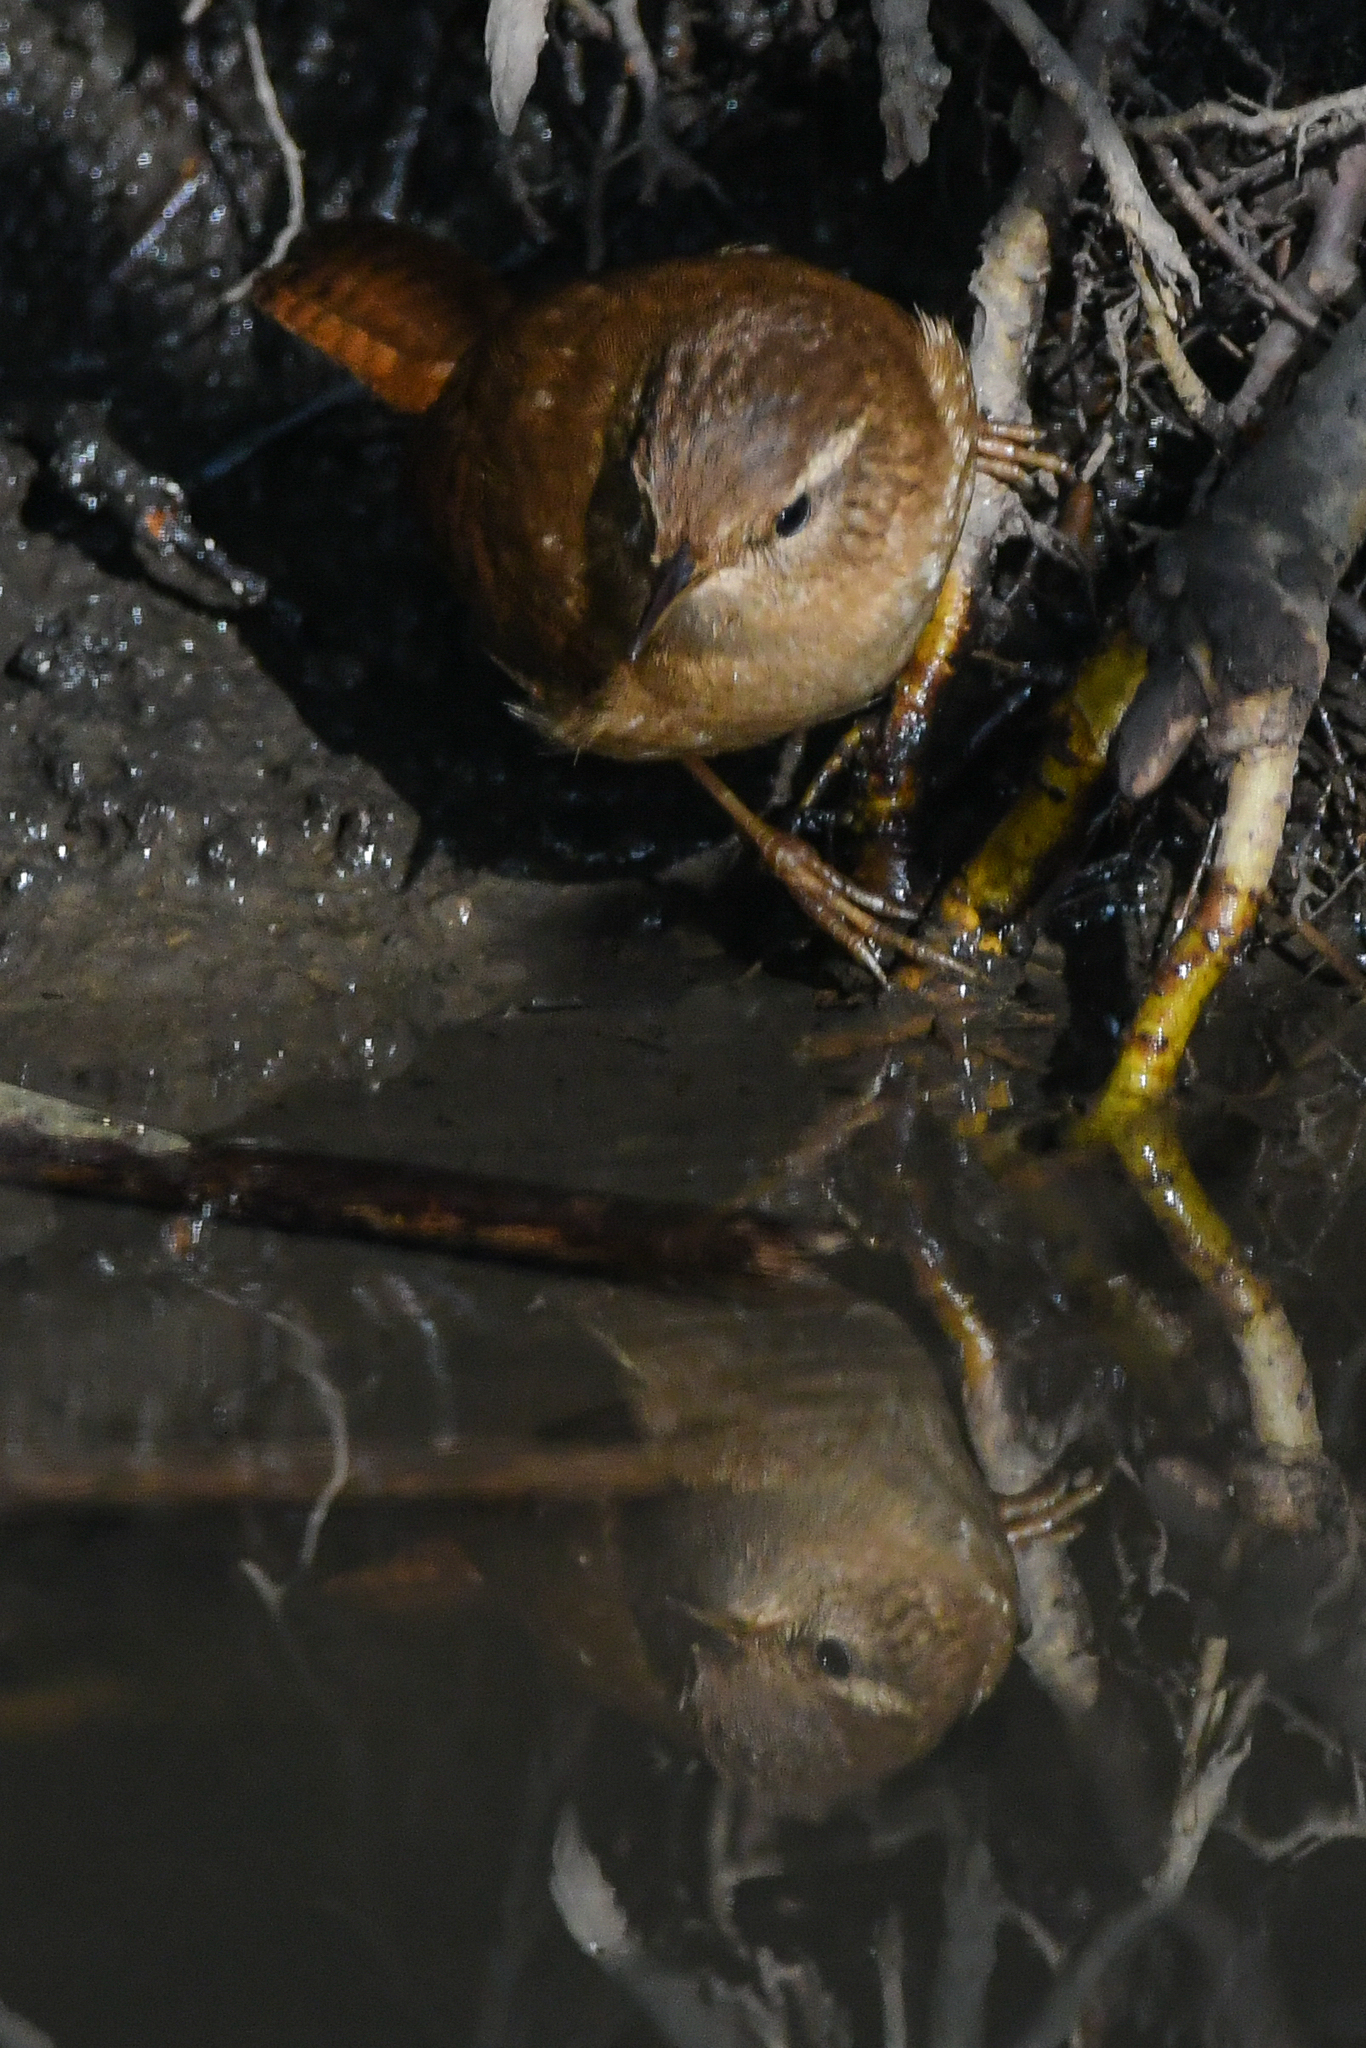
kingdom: Animalia
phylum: Chordata
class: Aves
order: Passeriformes
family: Troglodytidae
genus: Troglodytes
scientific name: Troglodytes troglodytes
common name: Eurasian wren
